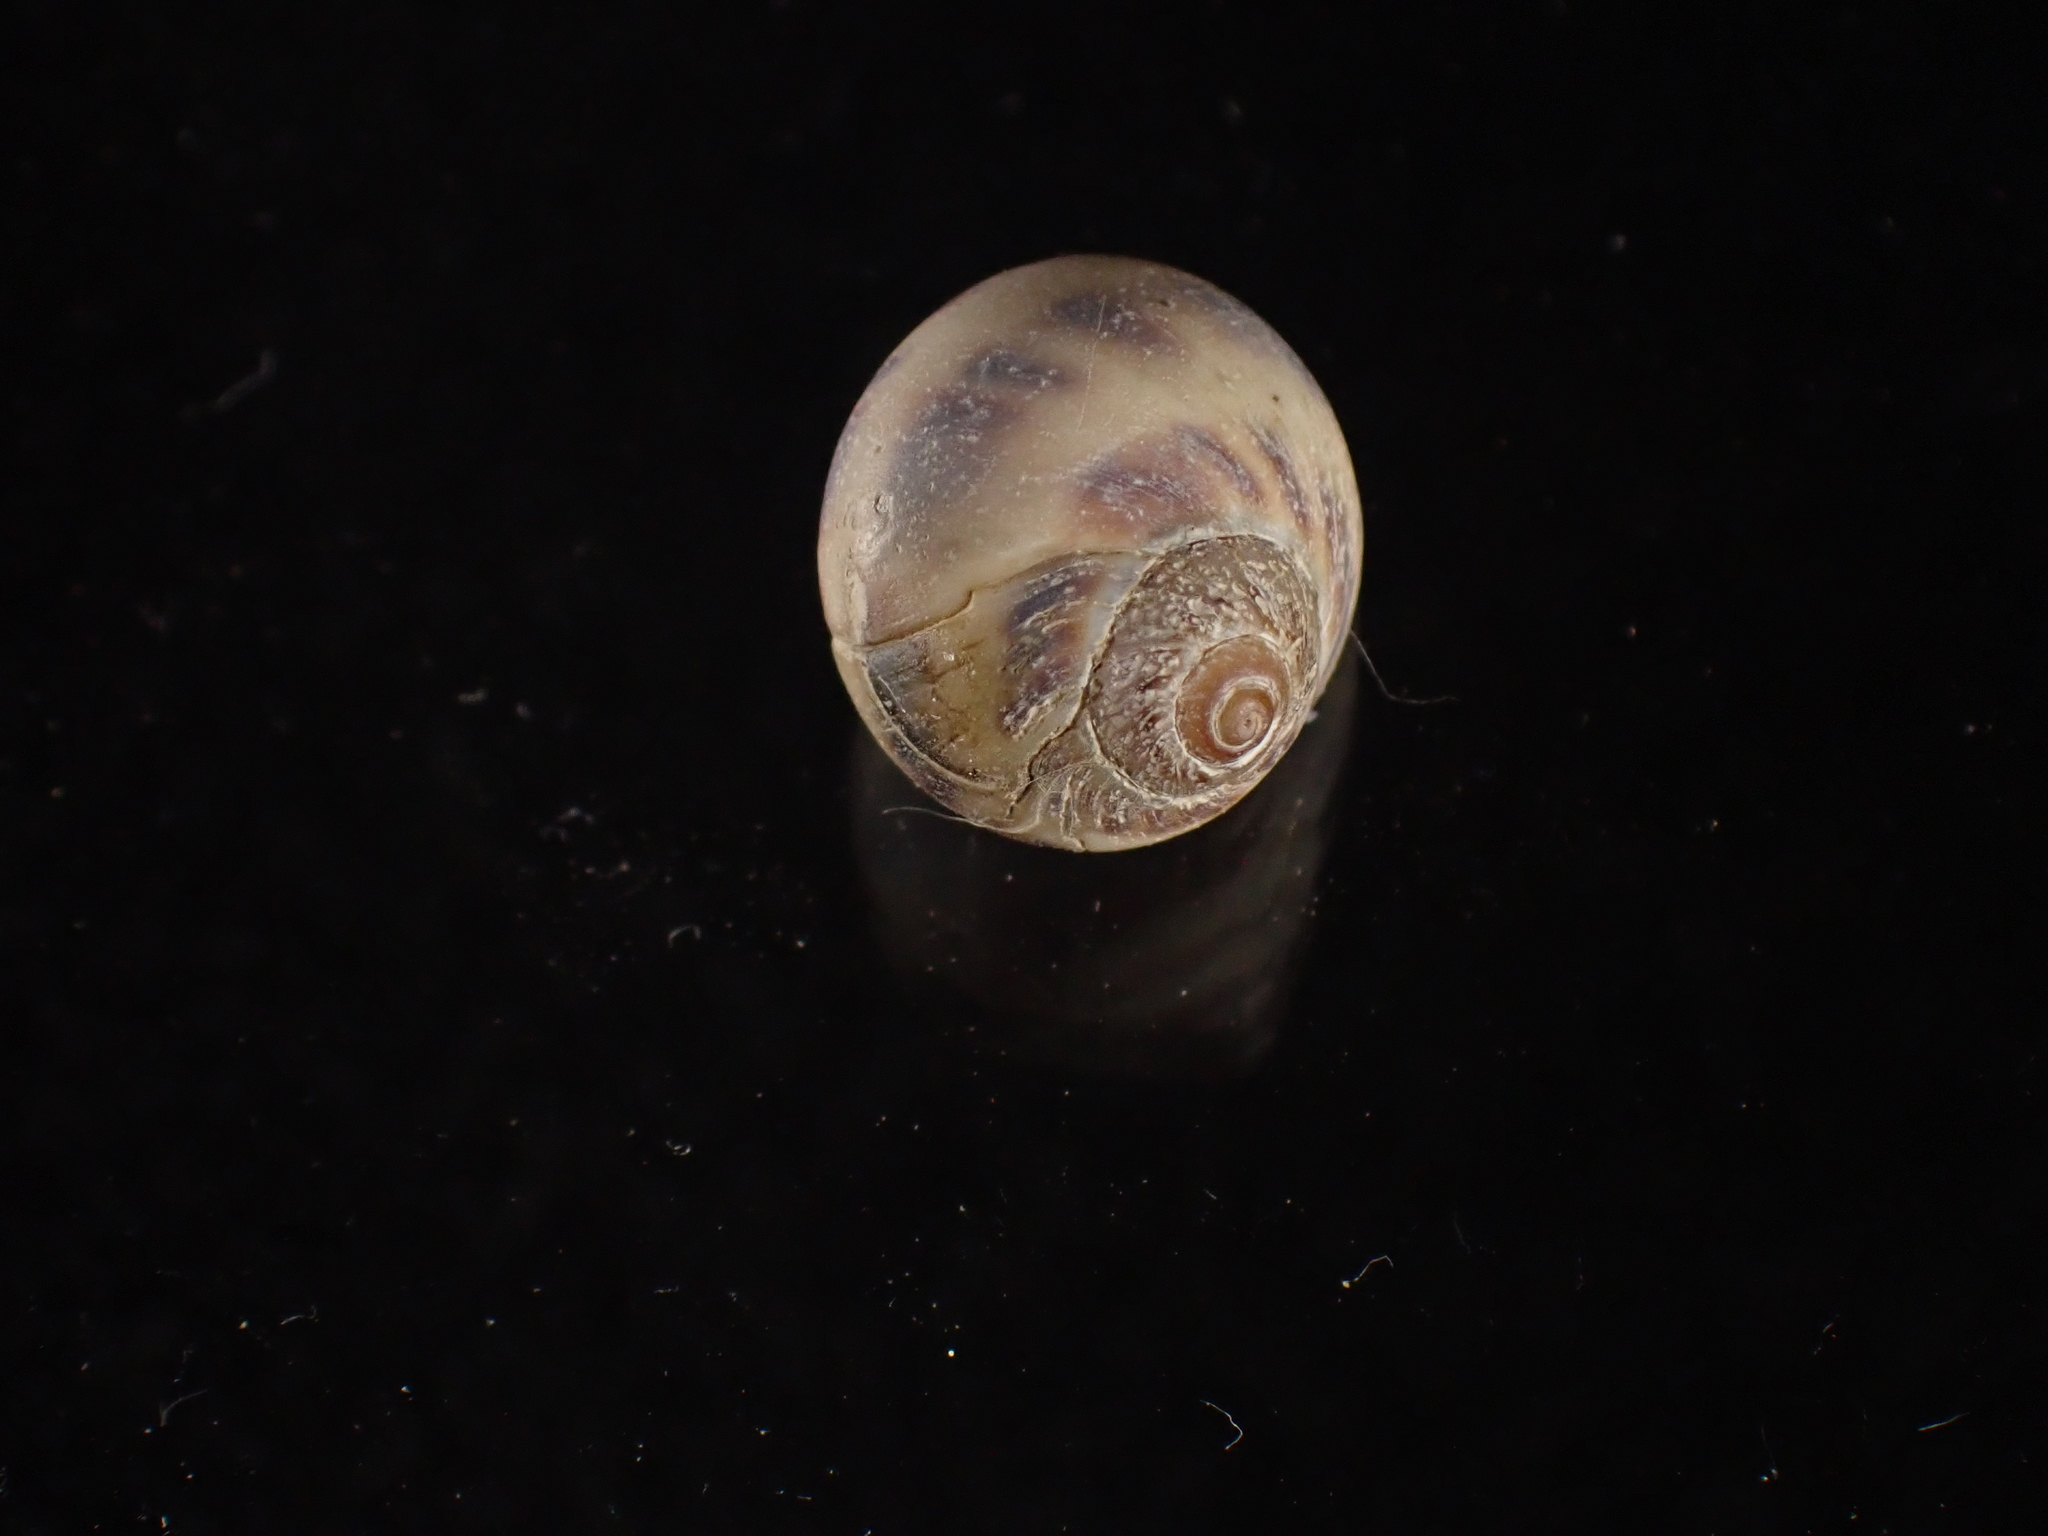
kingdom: Animalia
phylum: Mollusca
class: Gastropoda
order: Littorinimorpha
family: Naticidae
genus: Euspira
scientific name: Euspira triseriata
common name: Spotted moonsnail
